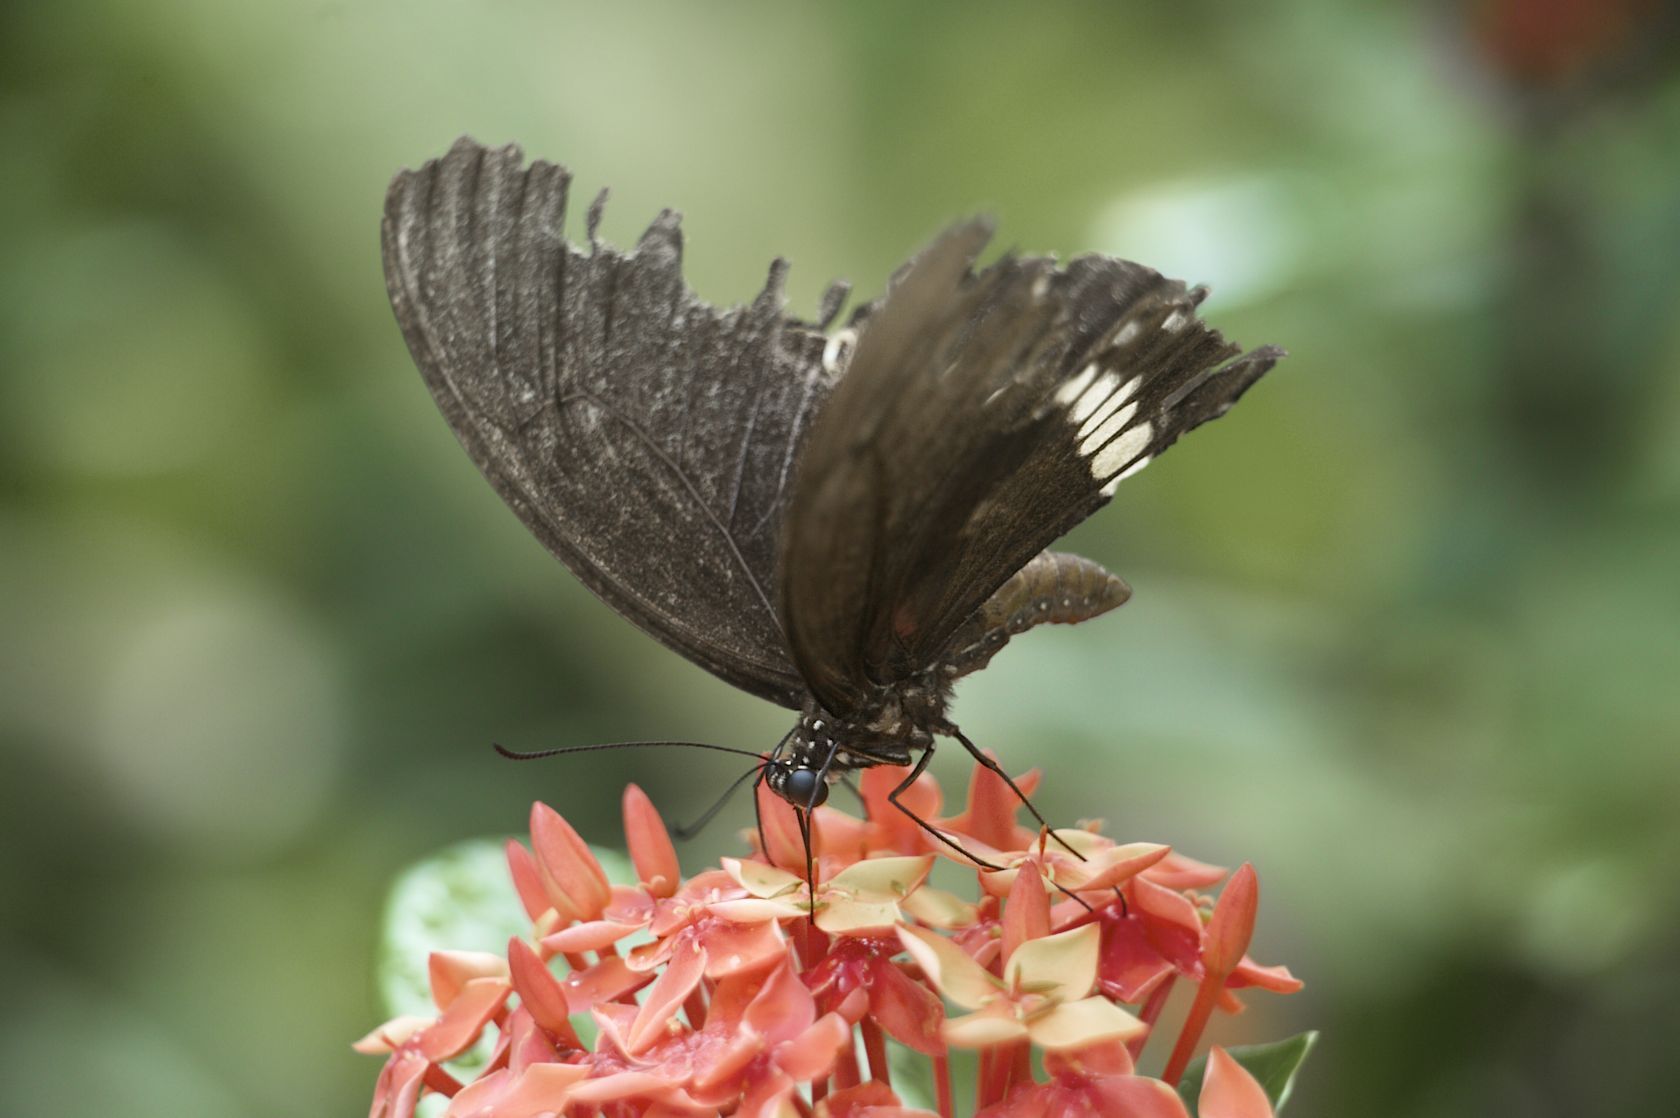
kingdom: Animalia
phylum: Arthropoda
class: Insecta
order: Lepidoptera
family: Papilionidae
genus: Papilio
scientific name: Papilio polytes
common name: Common mormon
